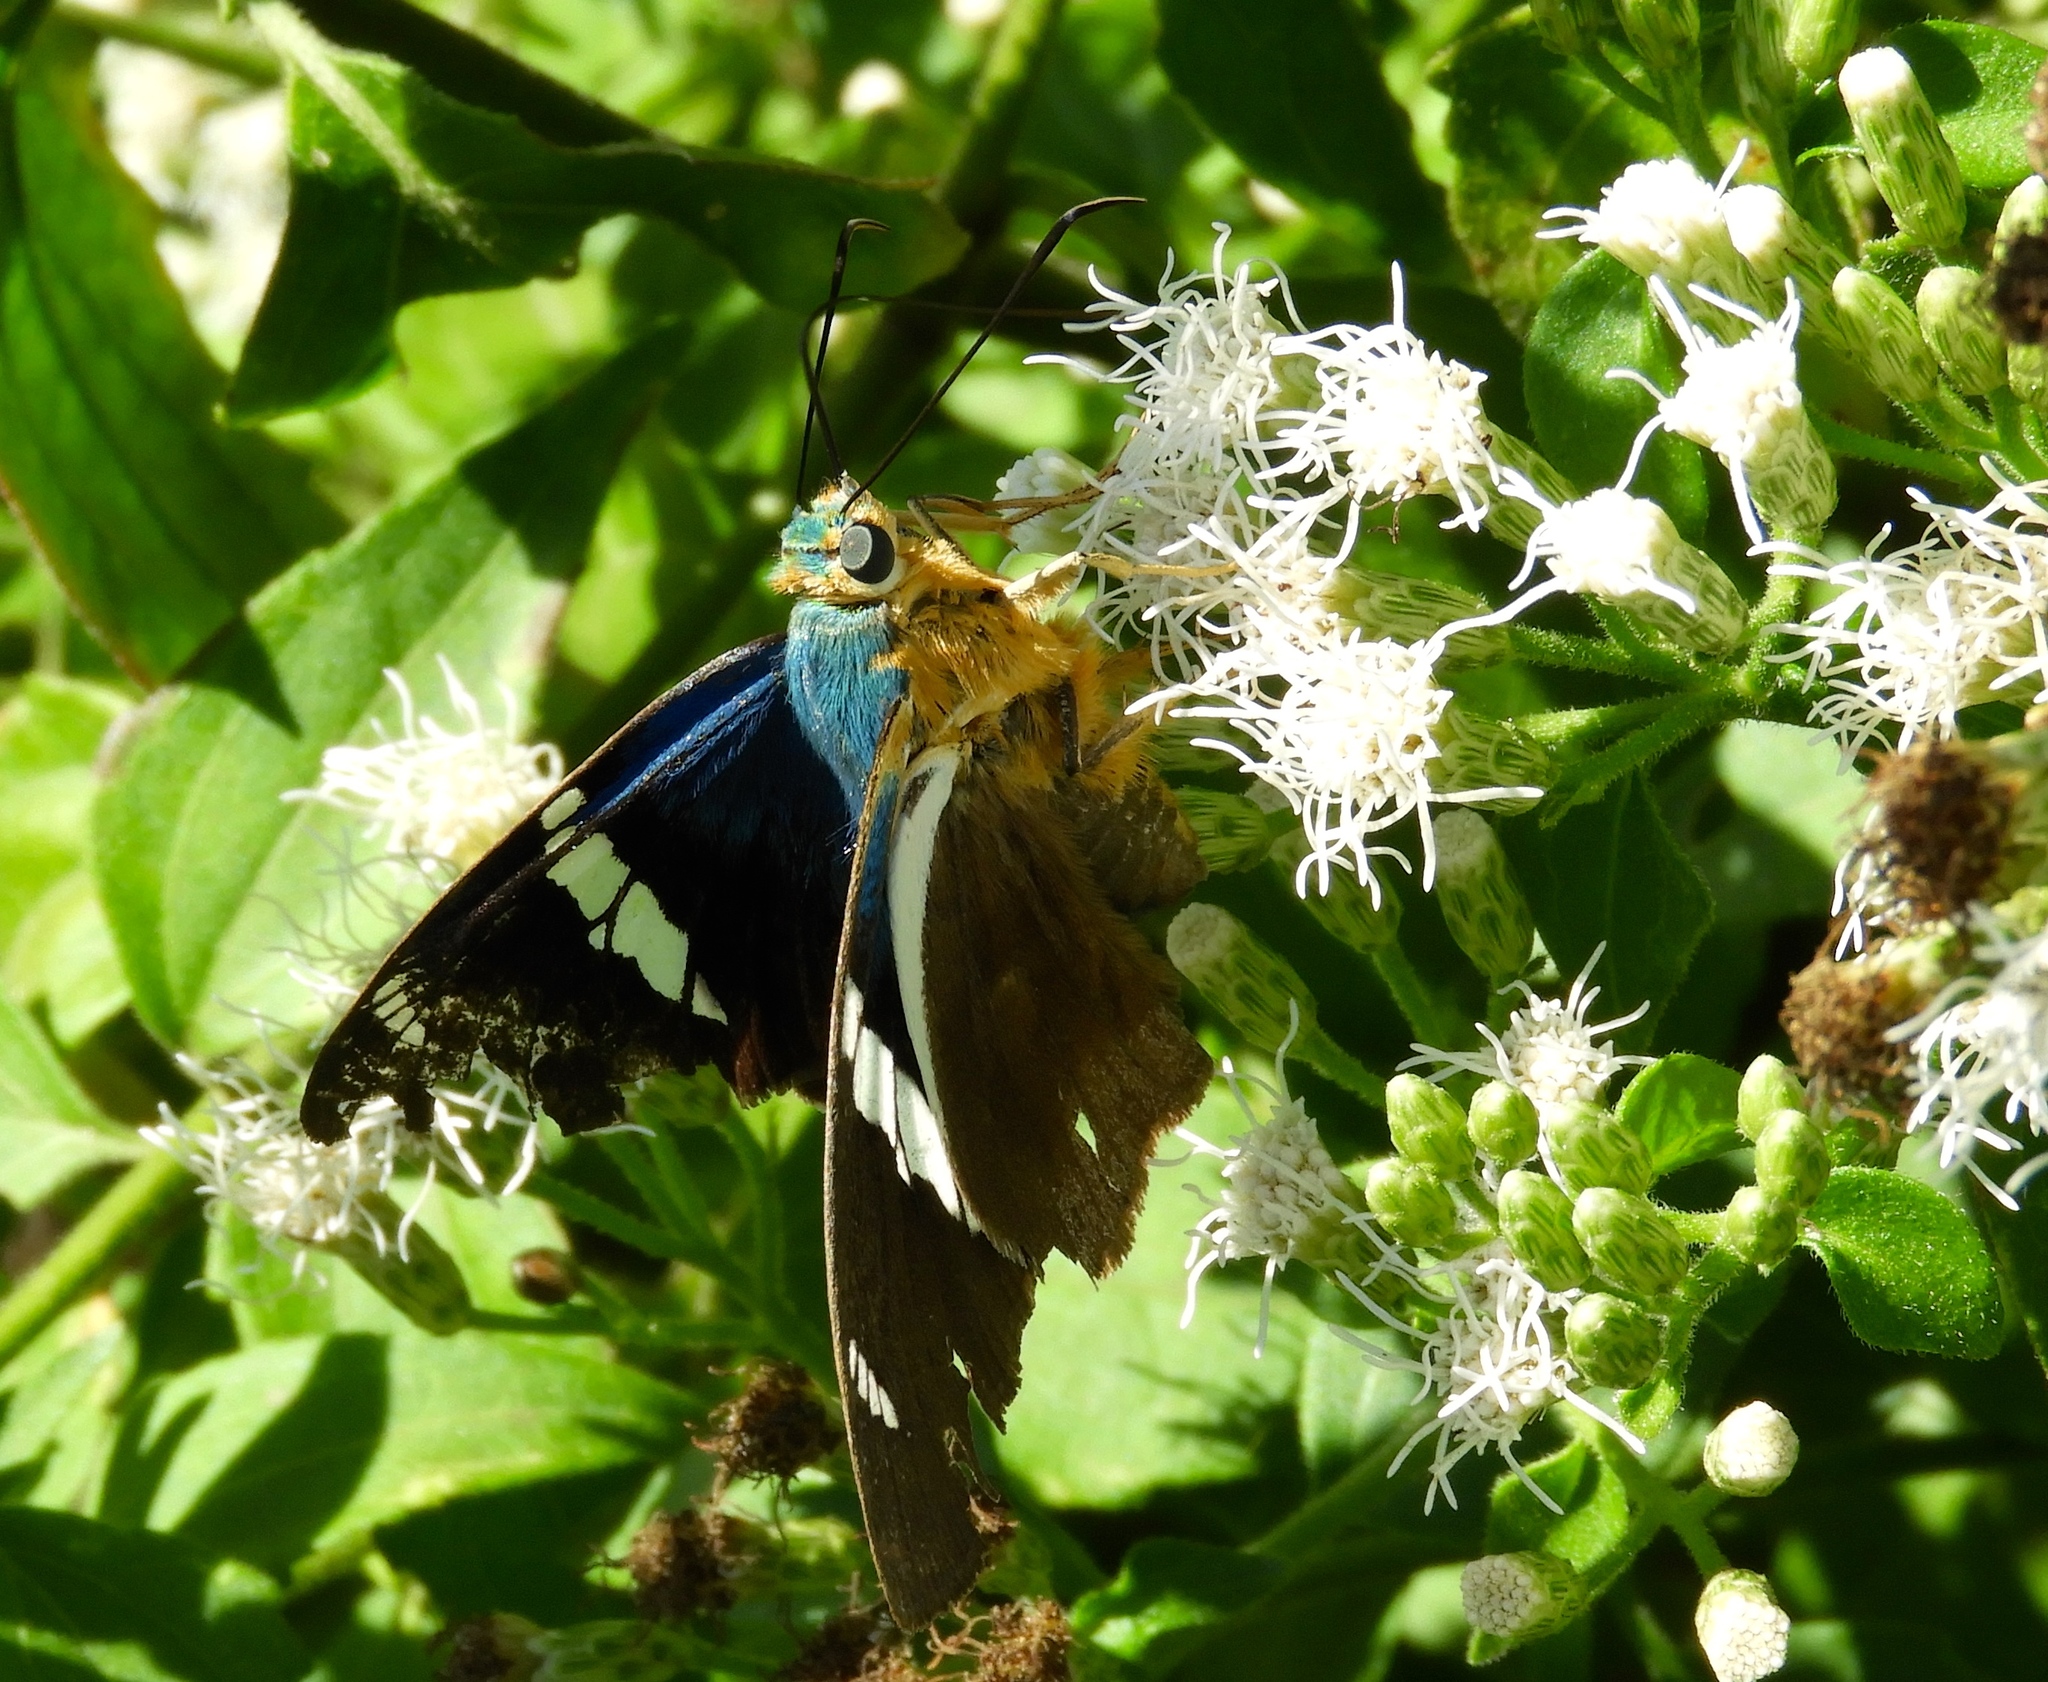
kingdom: Animalia
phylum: Arthropoda
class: Insecta
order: Lepidoptera
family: Hesperiidae
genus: Astraptes
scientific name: Astraptes fulgerator
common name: Two-barred flasher
